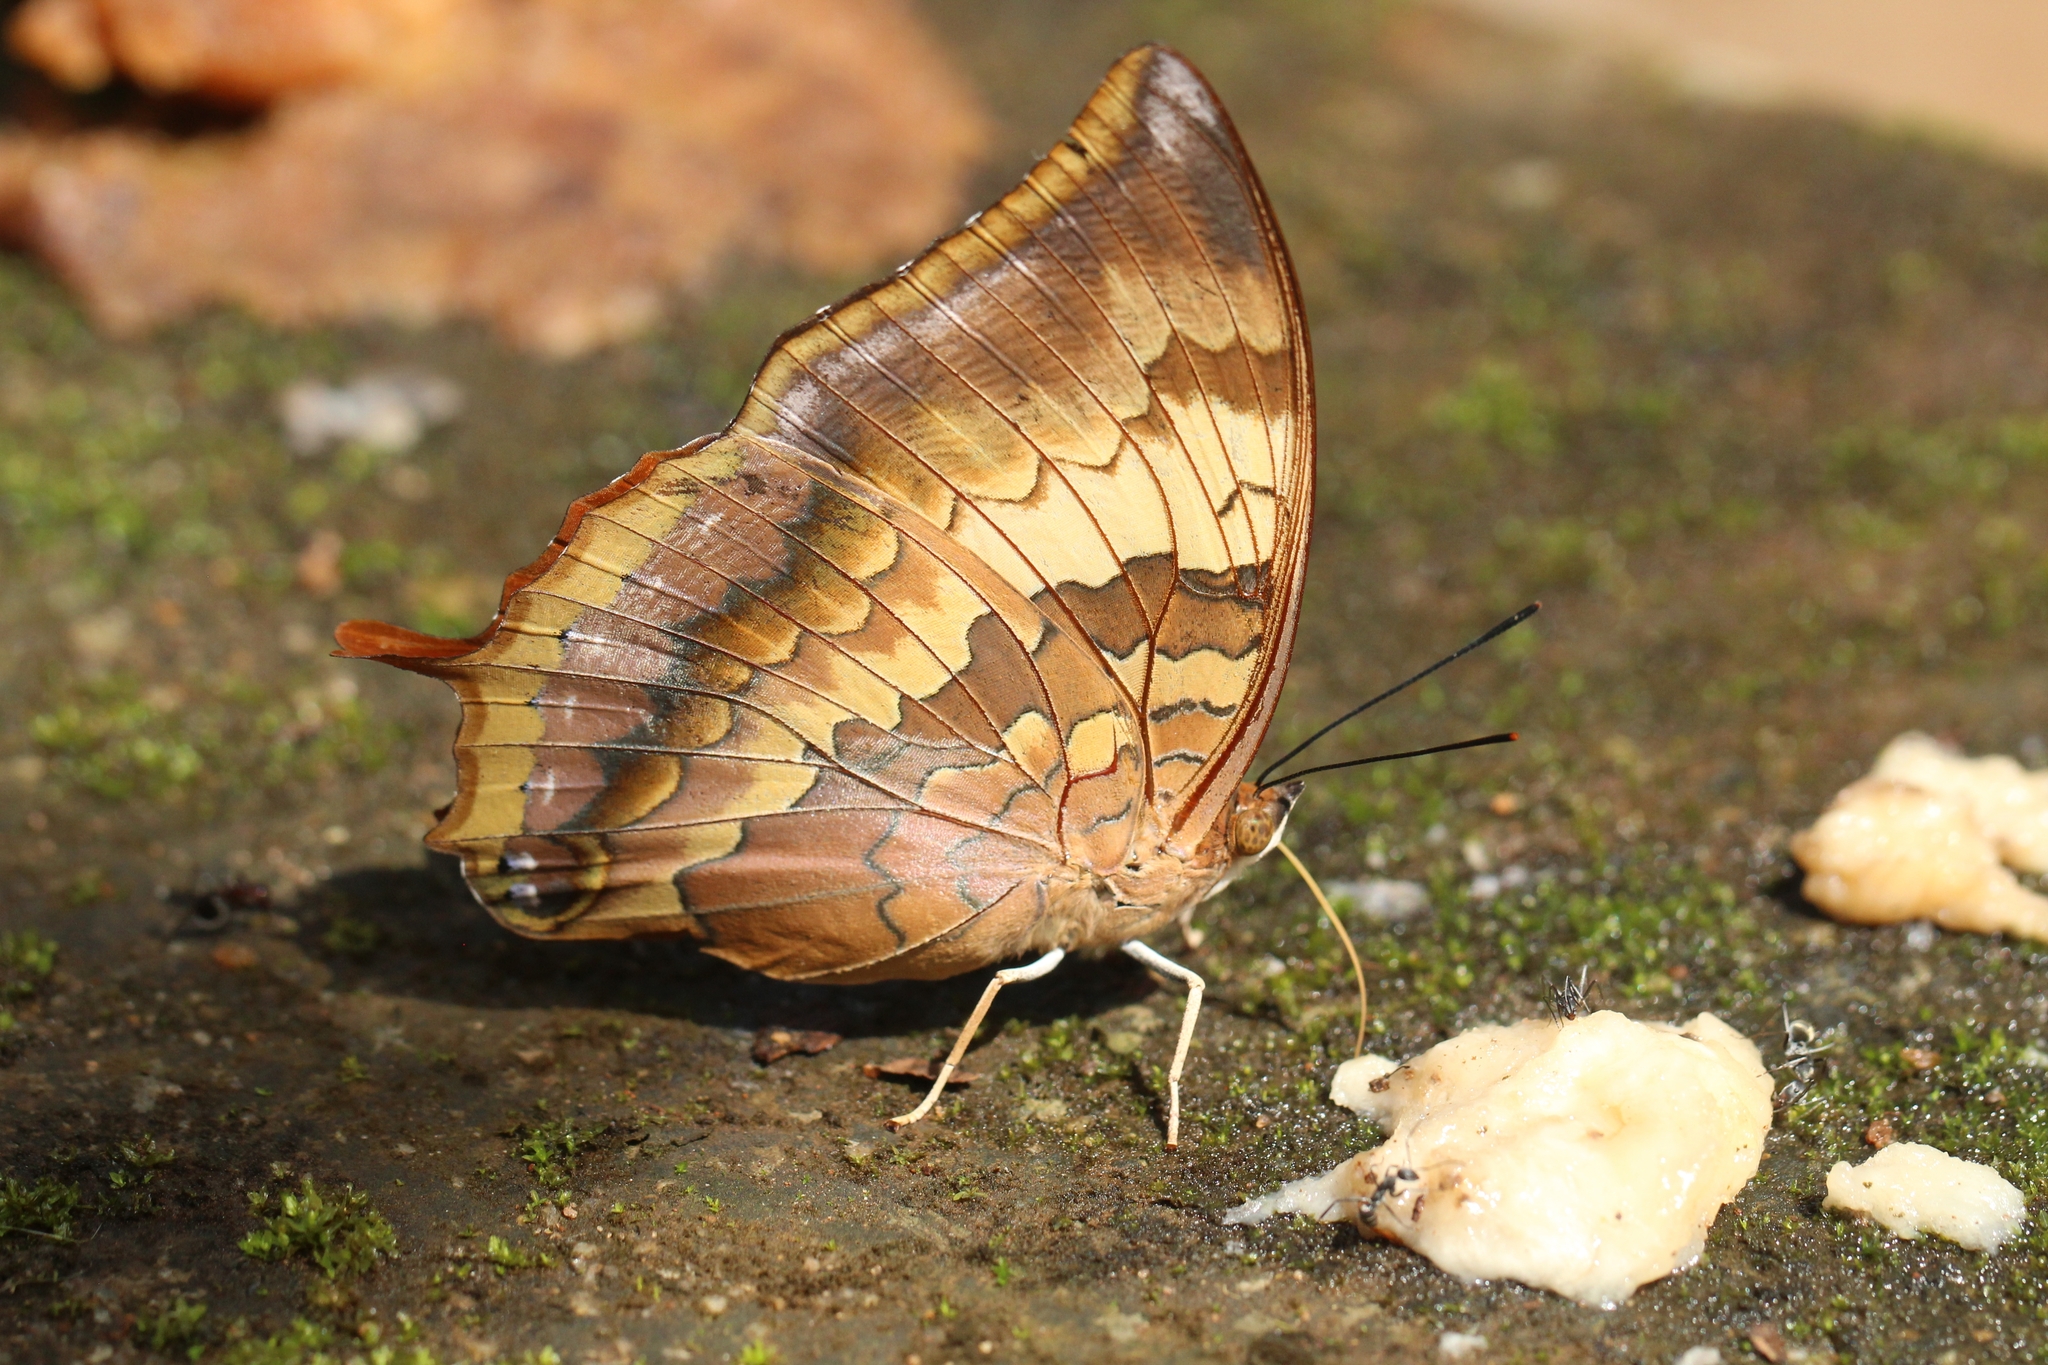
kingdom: Animalia
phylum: Arthropoda
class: Insecta
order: Lepidoptera
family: Nymphalidae
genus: Charaxes
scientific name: Charaxes psaphon
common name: Plain tawny rajah
